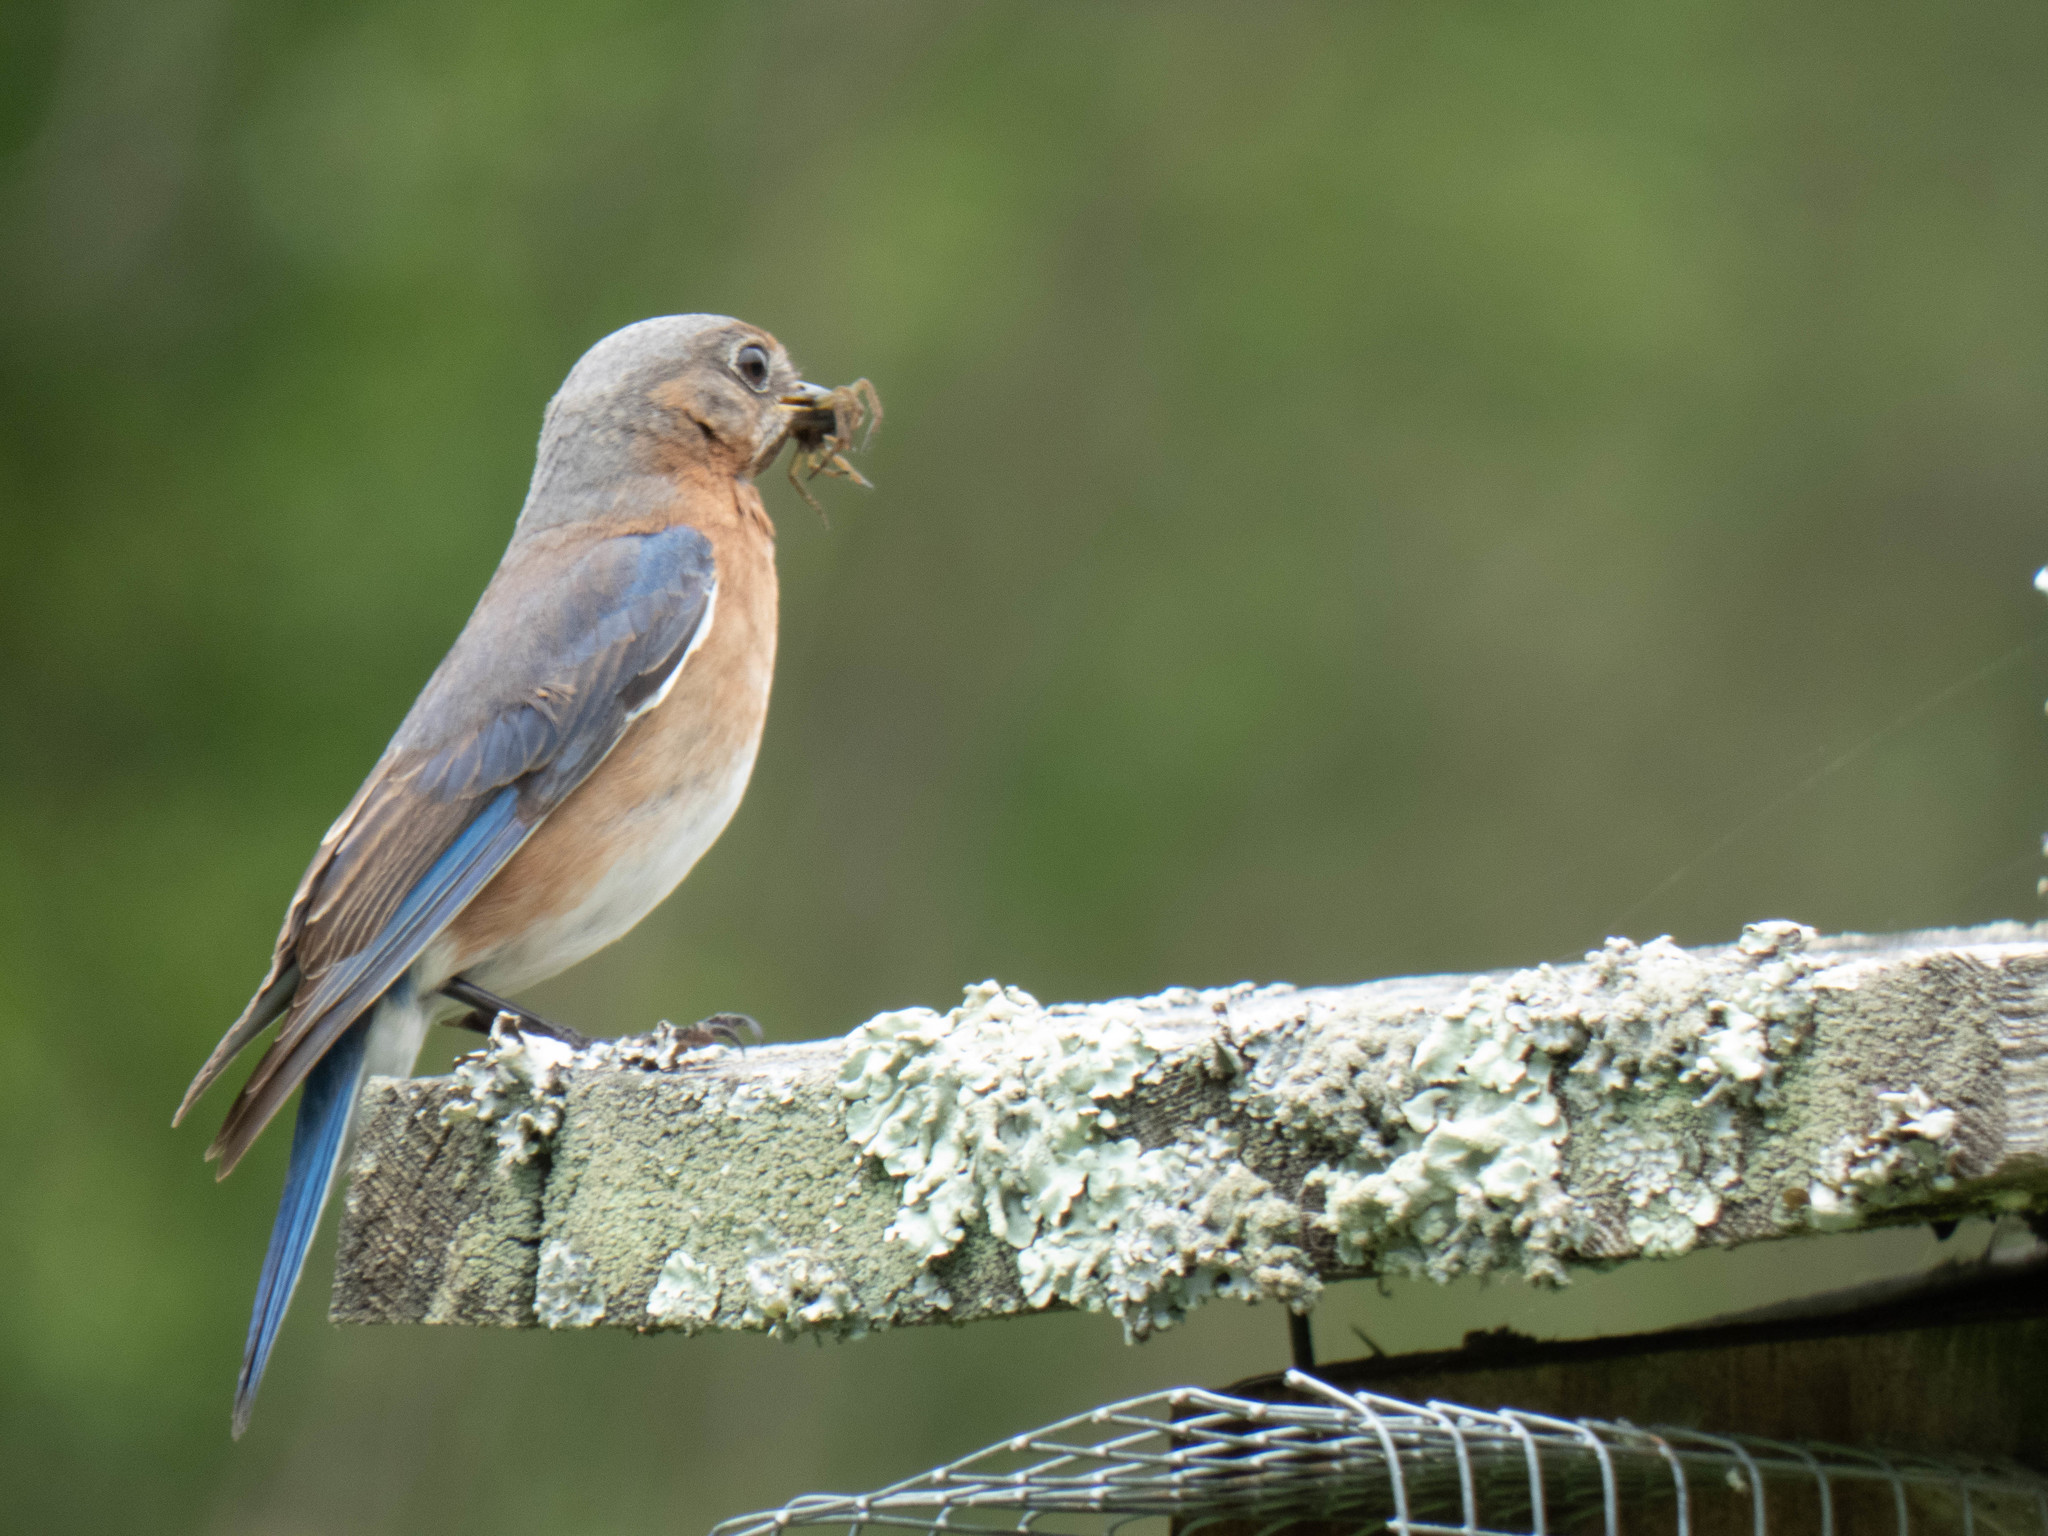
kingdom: Animalia
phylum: Chordata
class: Aves
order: Passeriformes
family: Turdidae
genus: Sialia
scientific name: Sialia sialis
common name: Eastern bluebird
